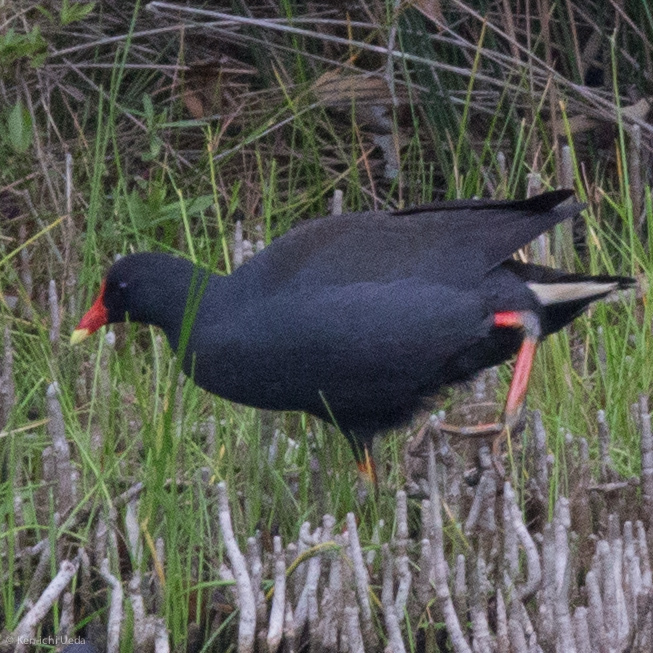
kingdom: Animalia
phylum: Chordata
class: Aves
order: Gruiformes
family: Rallidae
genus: Gallinula
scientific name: Gallinula tenebrosa
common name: Dusky moorhen
